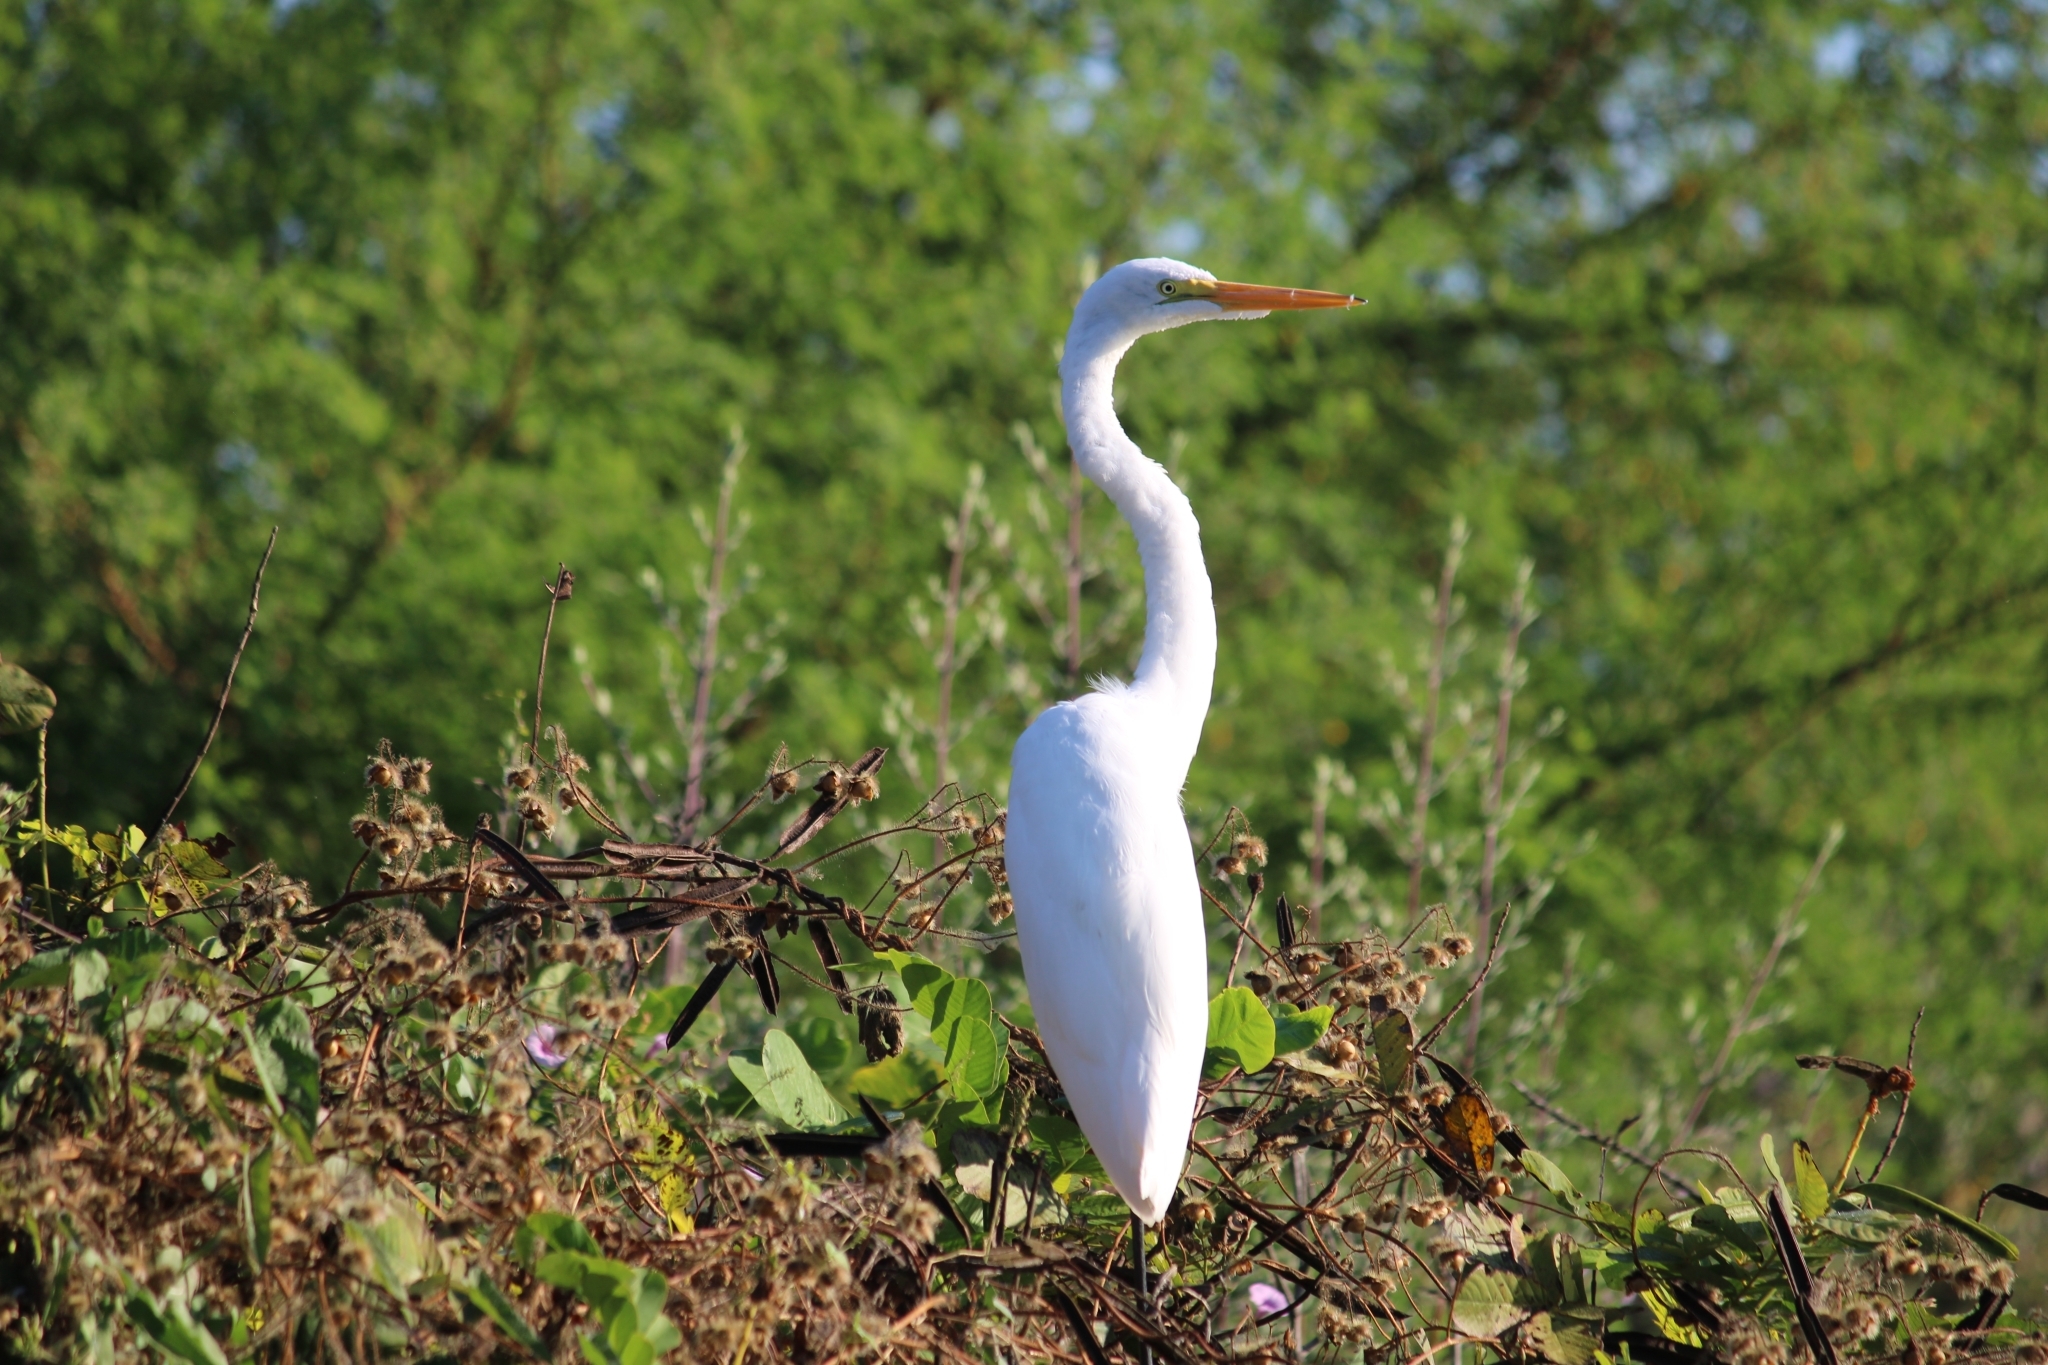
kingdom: Animalia
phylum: Chordata
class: Aves
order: Pelecaniformes
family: Ardeidae
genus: Ardea
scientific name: Ardea alba
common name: Great egret
